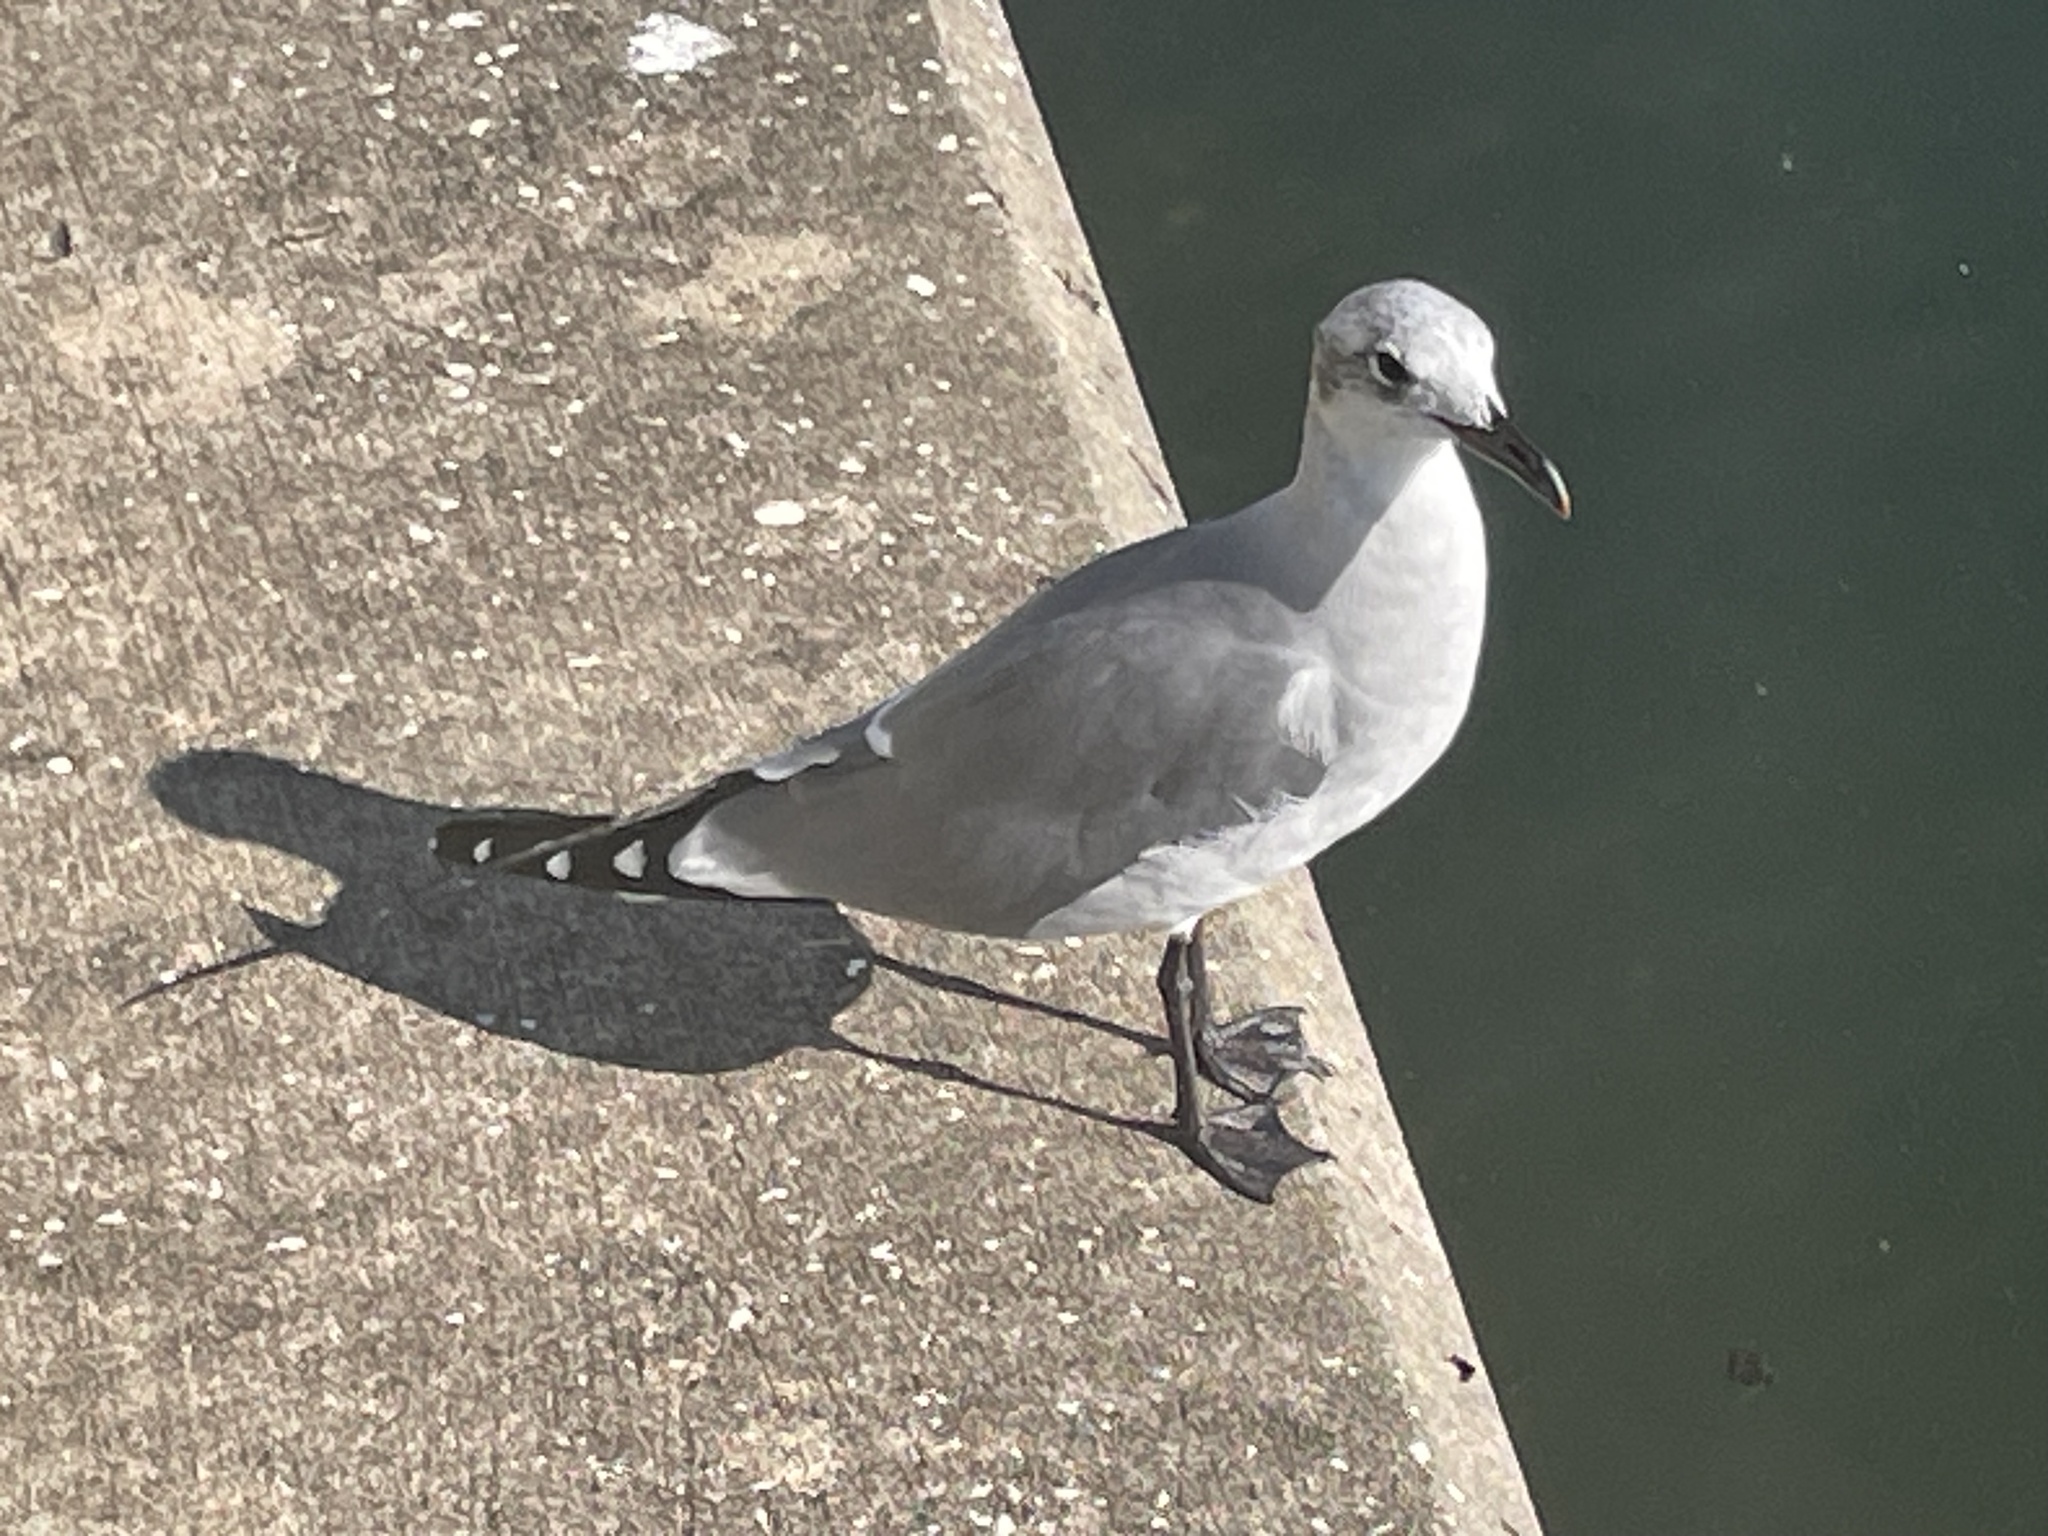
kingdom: Animalia
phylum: Chordata
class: Aves
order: Charadriiformes
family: Laridae
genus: Leucophaeus
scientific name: Leucophaeus atricilla
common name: Laughing gull
